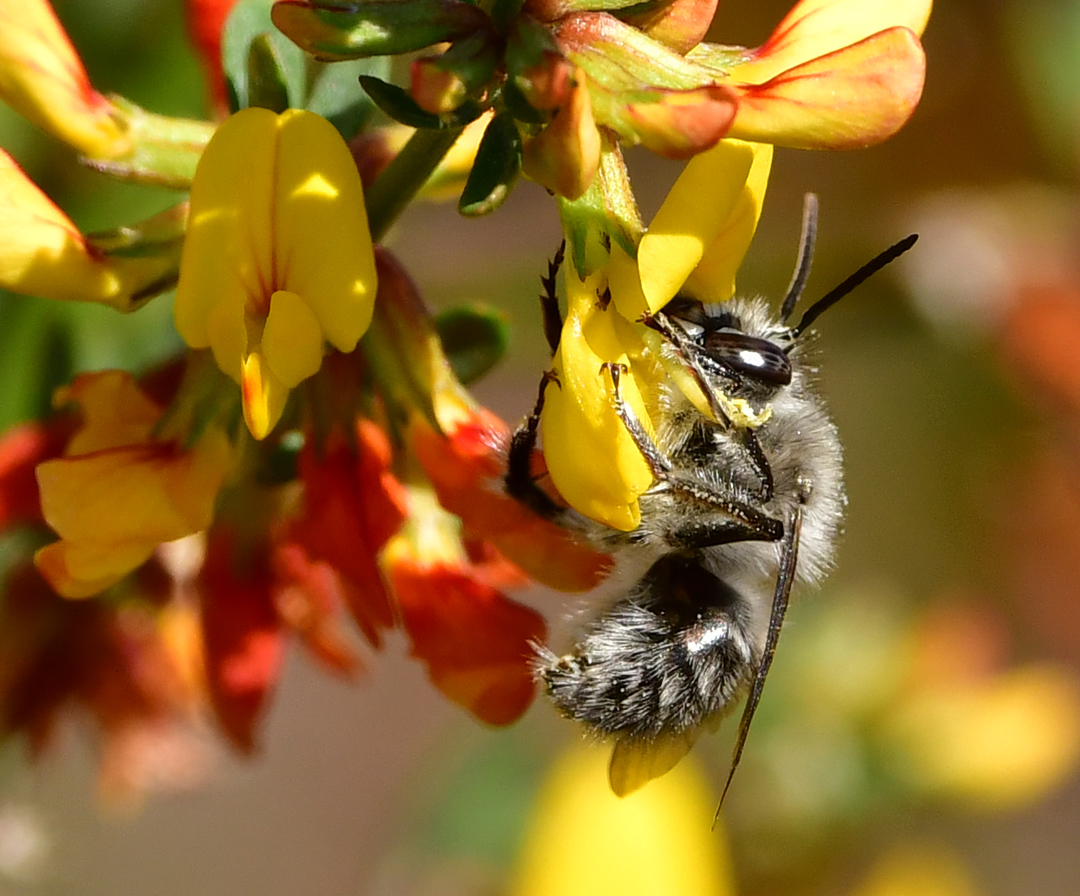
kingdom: Animalia
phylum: Arthropoda
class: Insecta
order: Hymenoptera
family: Apidae
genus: Habropoda
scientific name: Habropoda depressa
